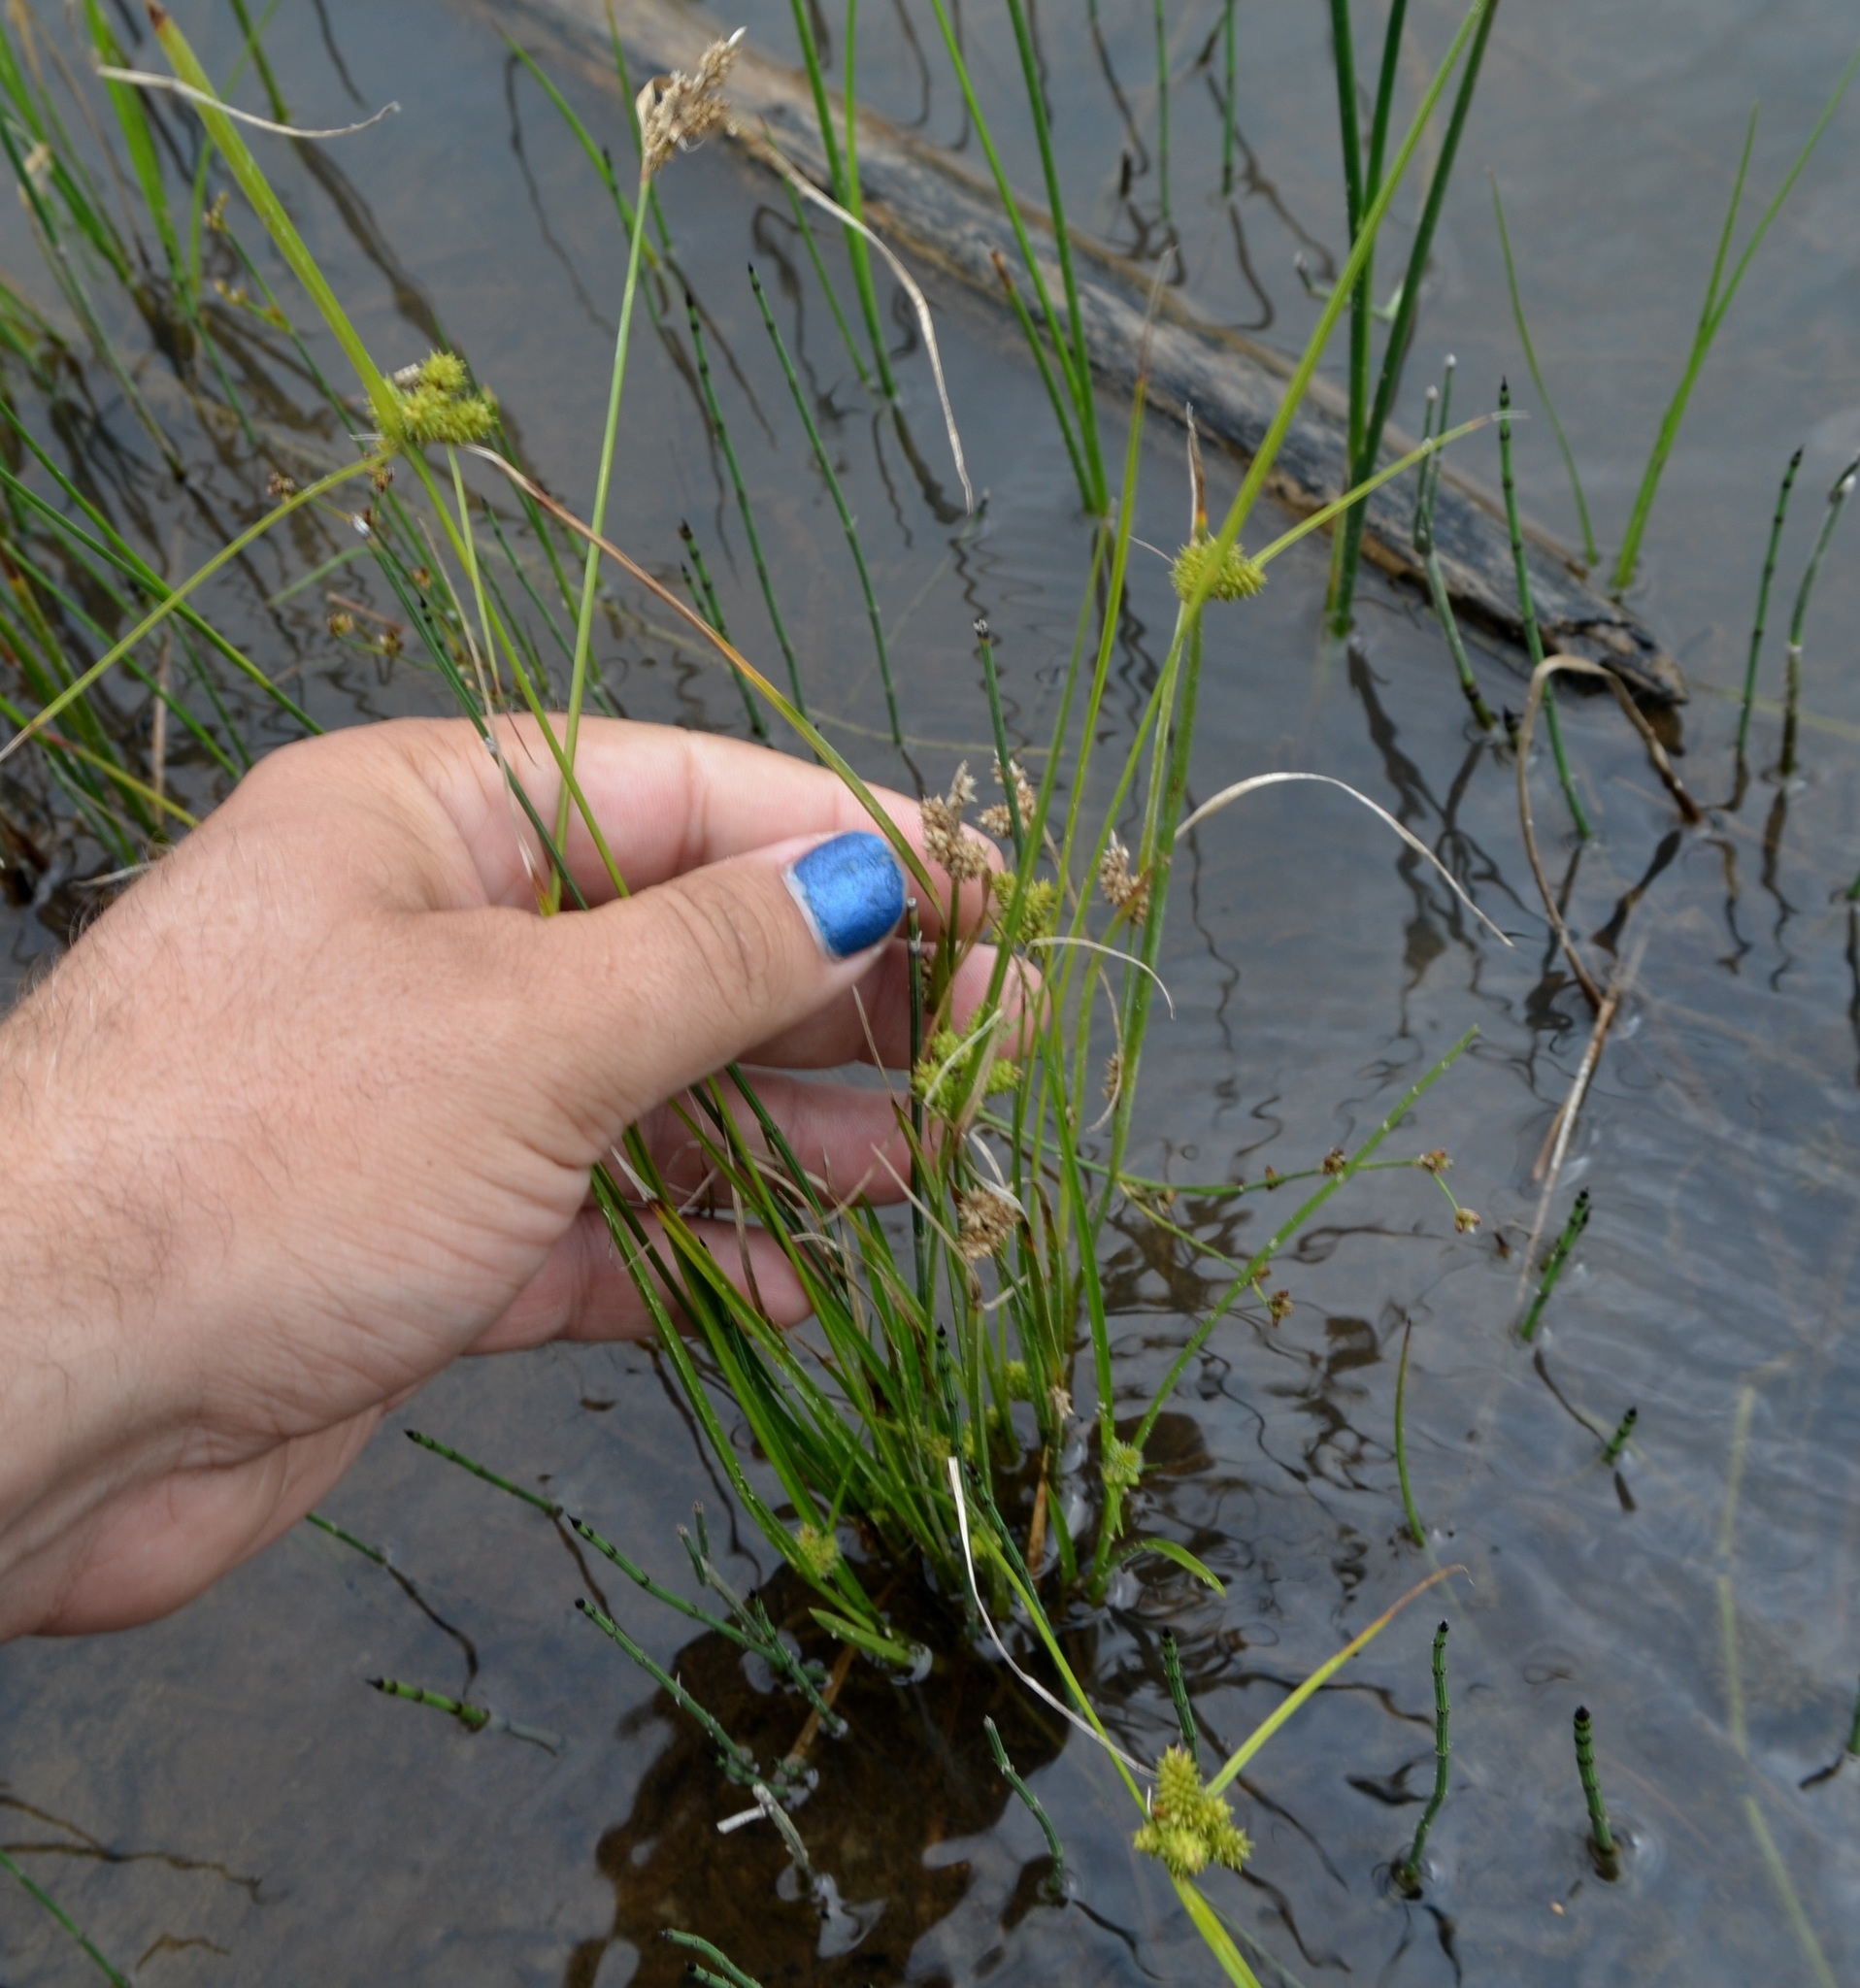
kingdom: Plantae
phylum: Tracheophyta
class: Liliopsida
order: Poales
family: Cyperaceae
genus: Carex
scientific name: Carex
